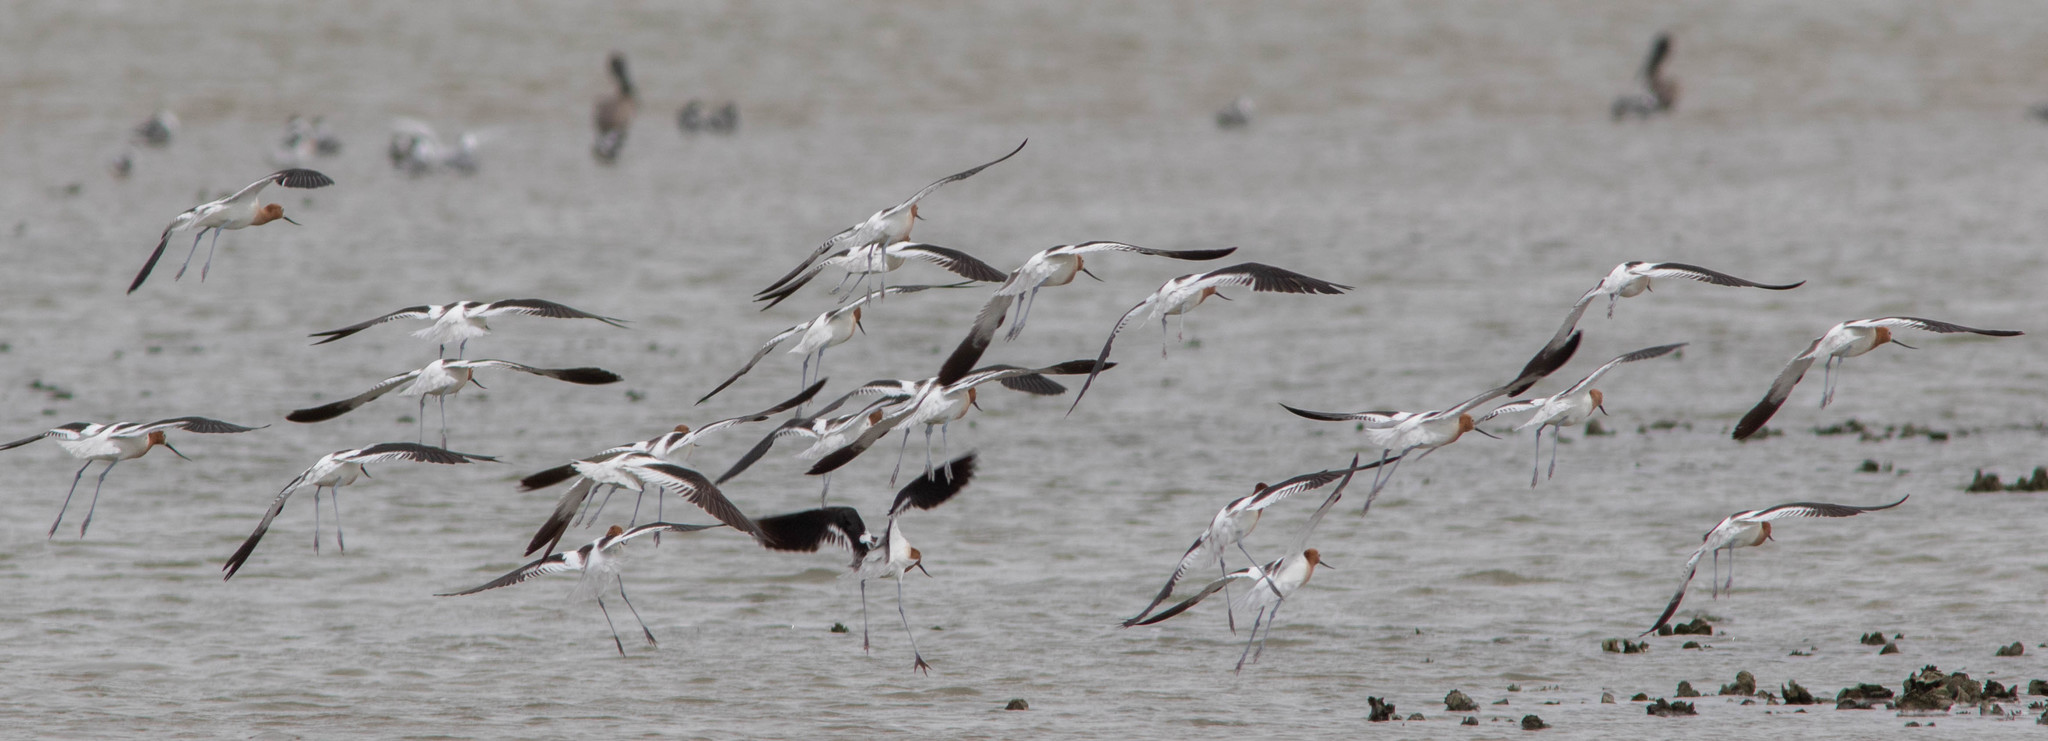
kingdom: Animalia
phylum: Chordata
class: Aves
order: Charadriiformes
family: Recurvirostridae
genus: Recurvirostra
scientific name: Recurvirostra americana
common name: American avocet
